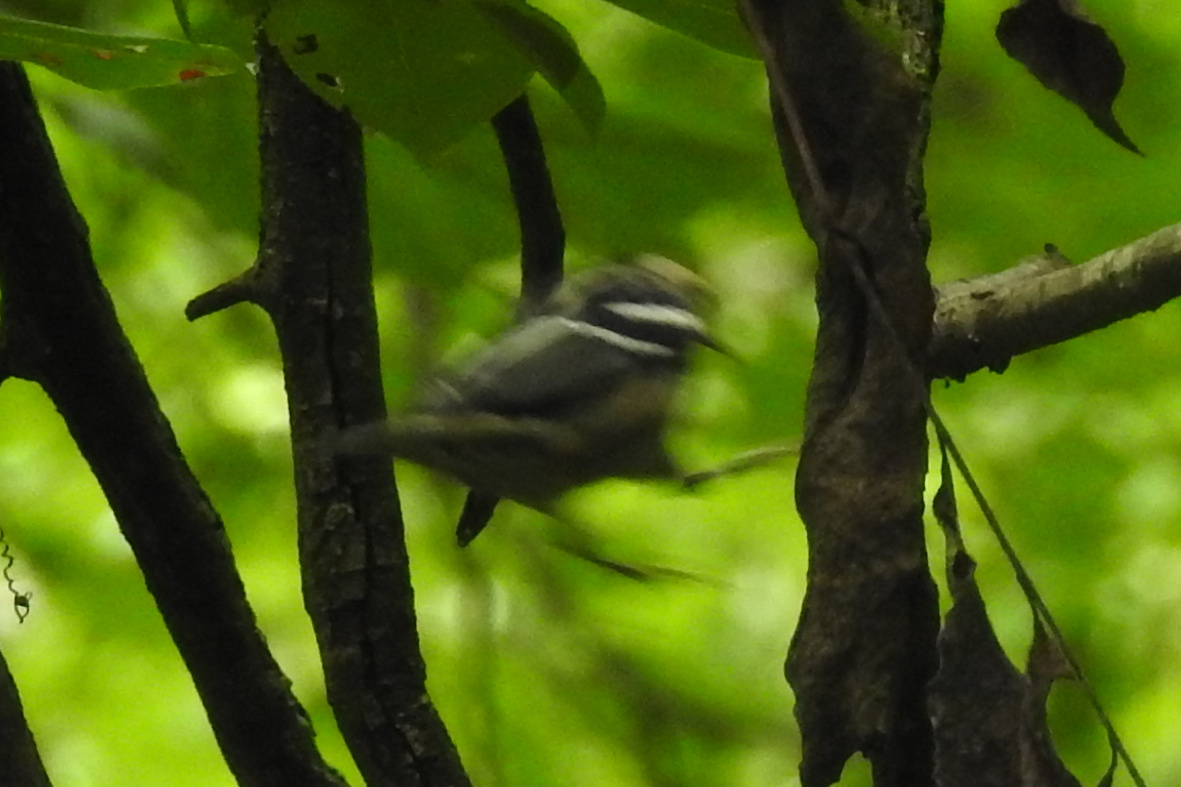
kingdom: Animalia
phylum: Chordata
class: Aves
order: Passeriformes
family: Parulidae
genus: Mniotilta
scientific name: Mniotilta varia
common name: Black-and-white warbler
